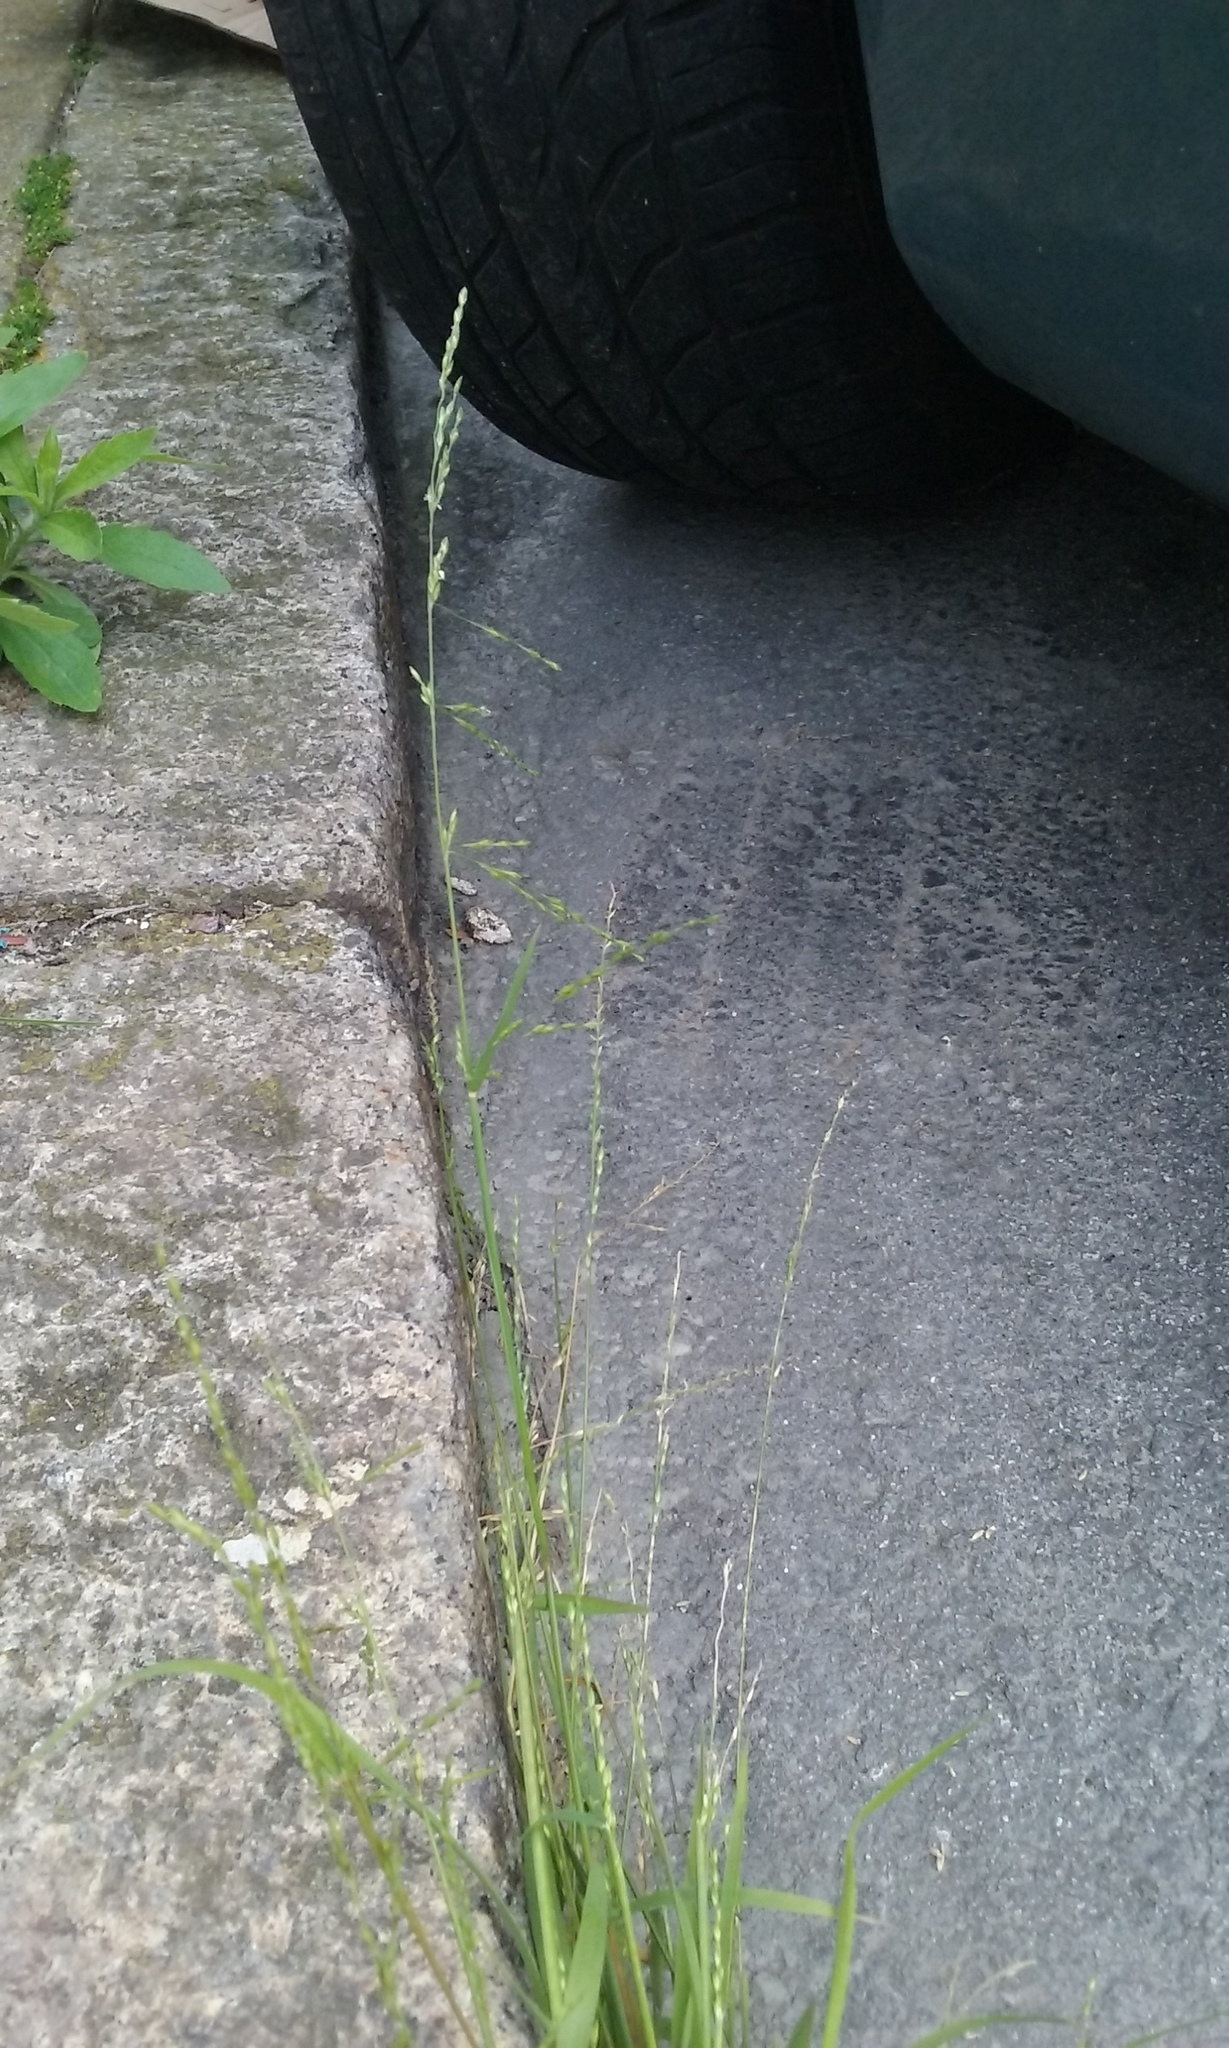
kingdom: Plantae
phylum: Tracheophyta
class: Liliopsida
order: Poales
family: Poaceae
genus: Ehrharta
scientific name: Ehrharta erecta
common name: Panic veldtgrass
